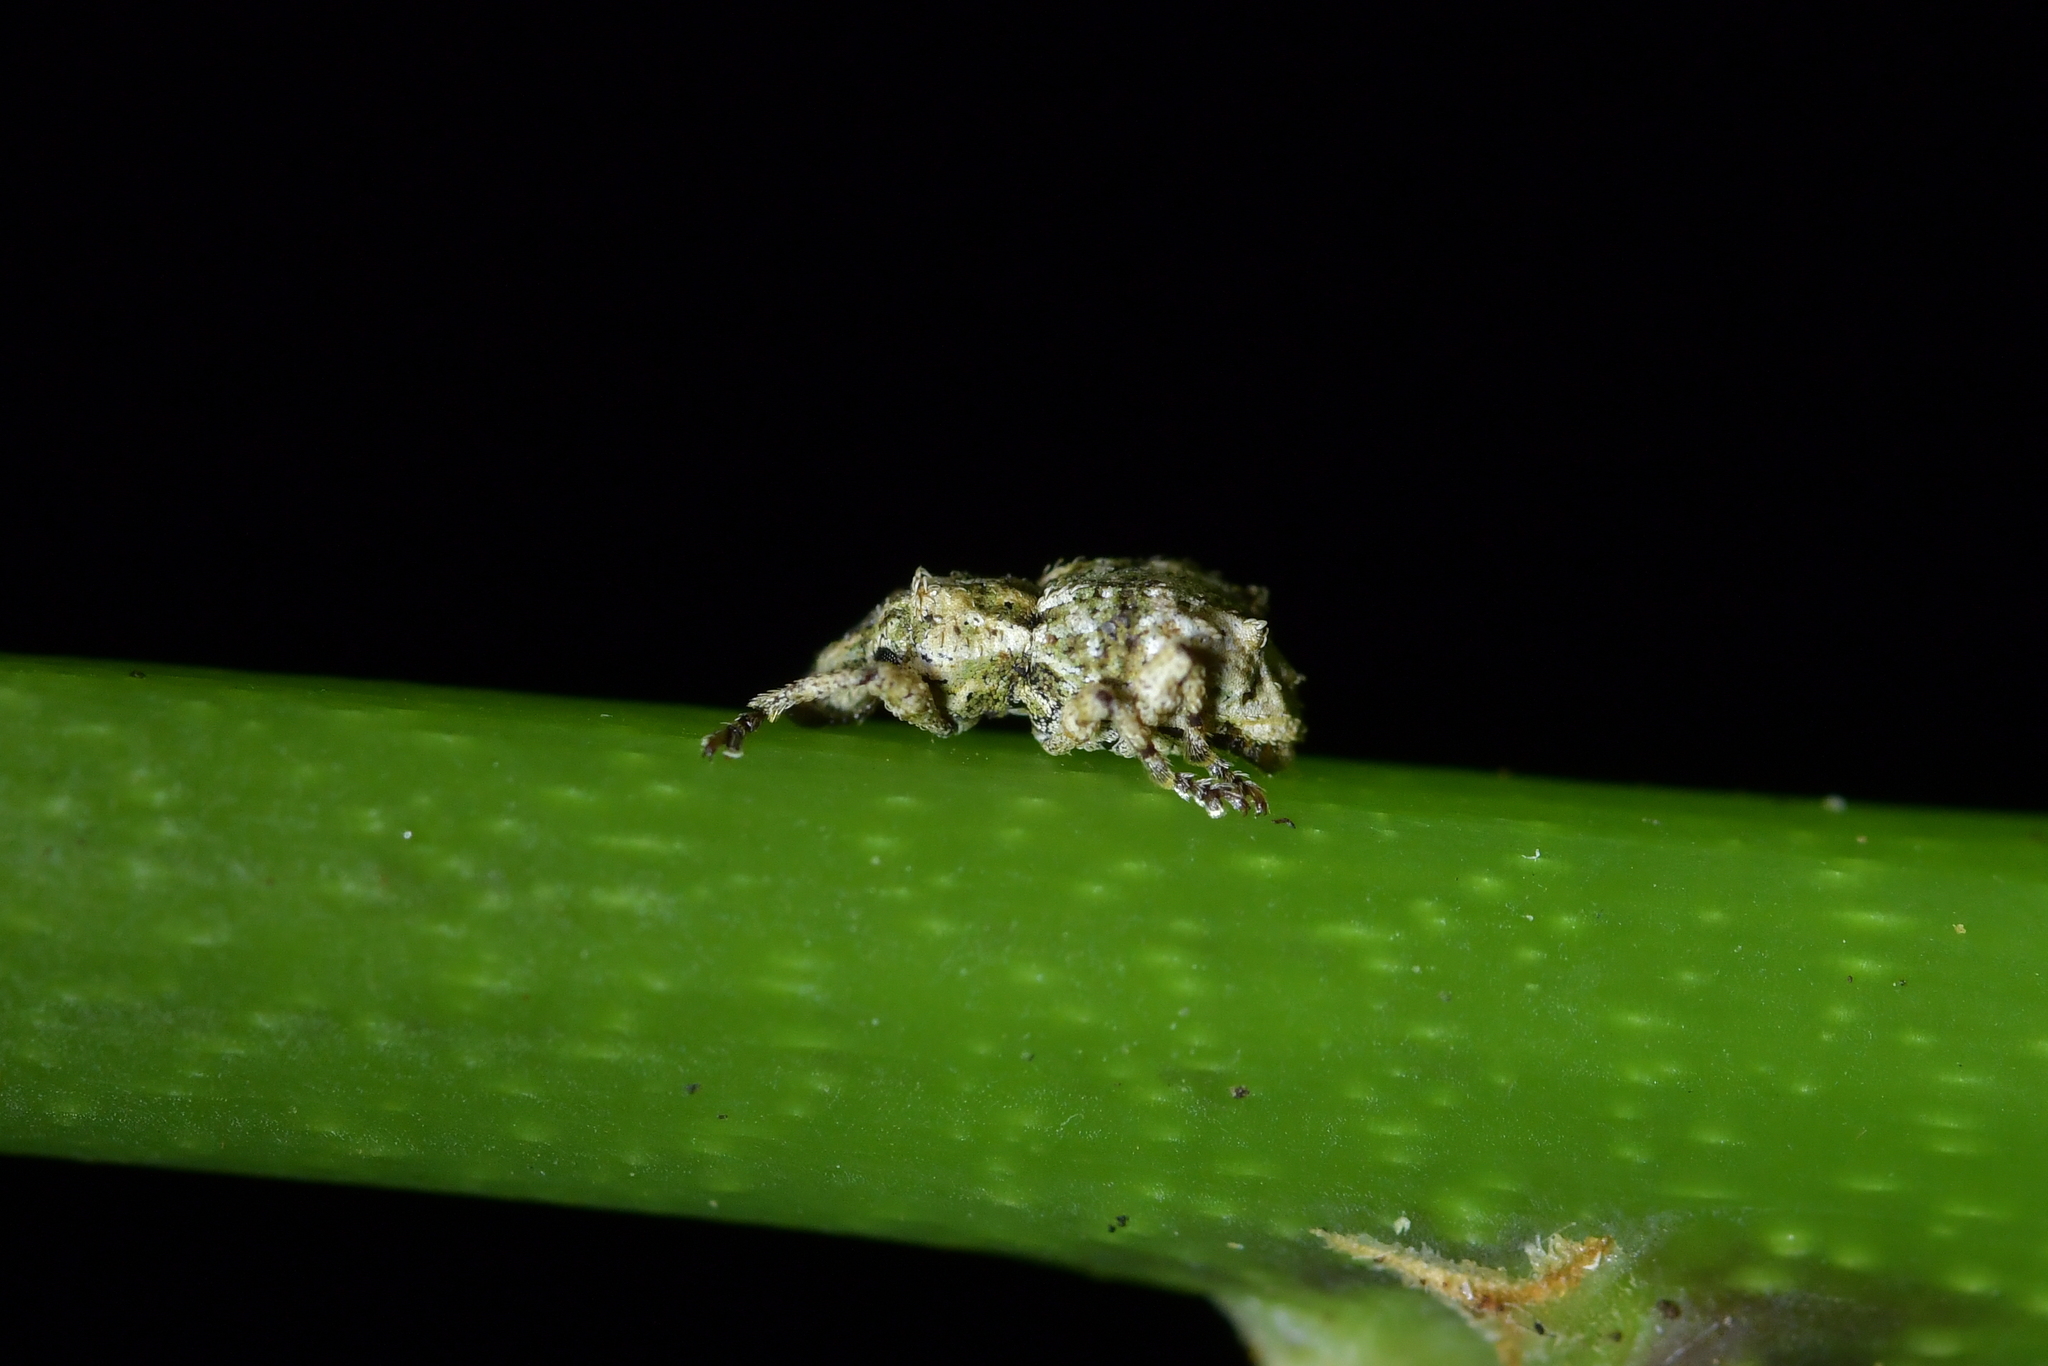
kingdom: Animalia
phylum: Arthropoda
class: Insecta
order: Coleoptera
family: Curculionidae
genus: Brachyolus
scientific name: Brachyolus punctatus
